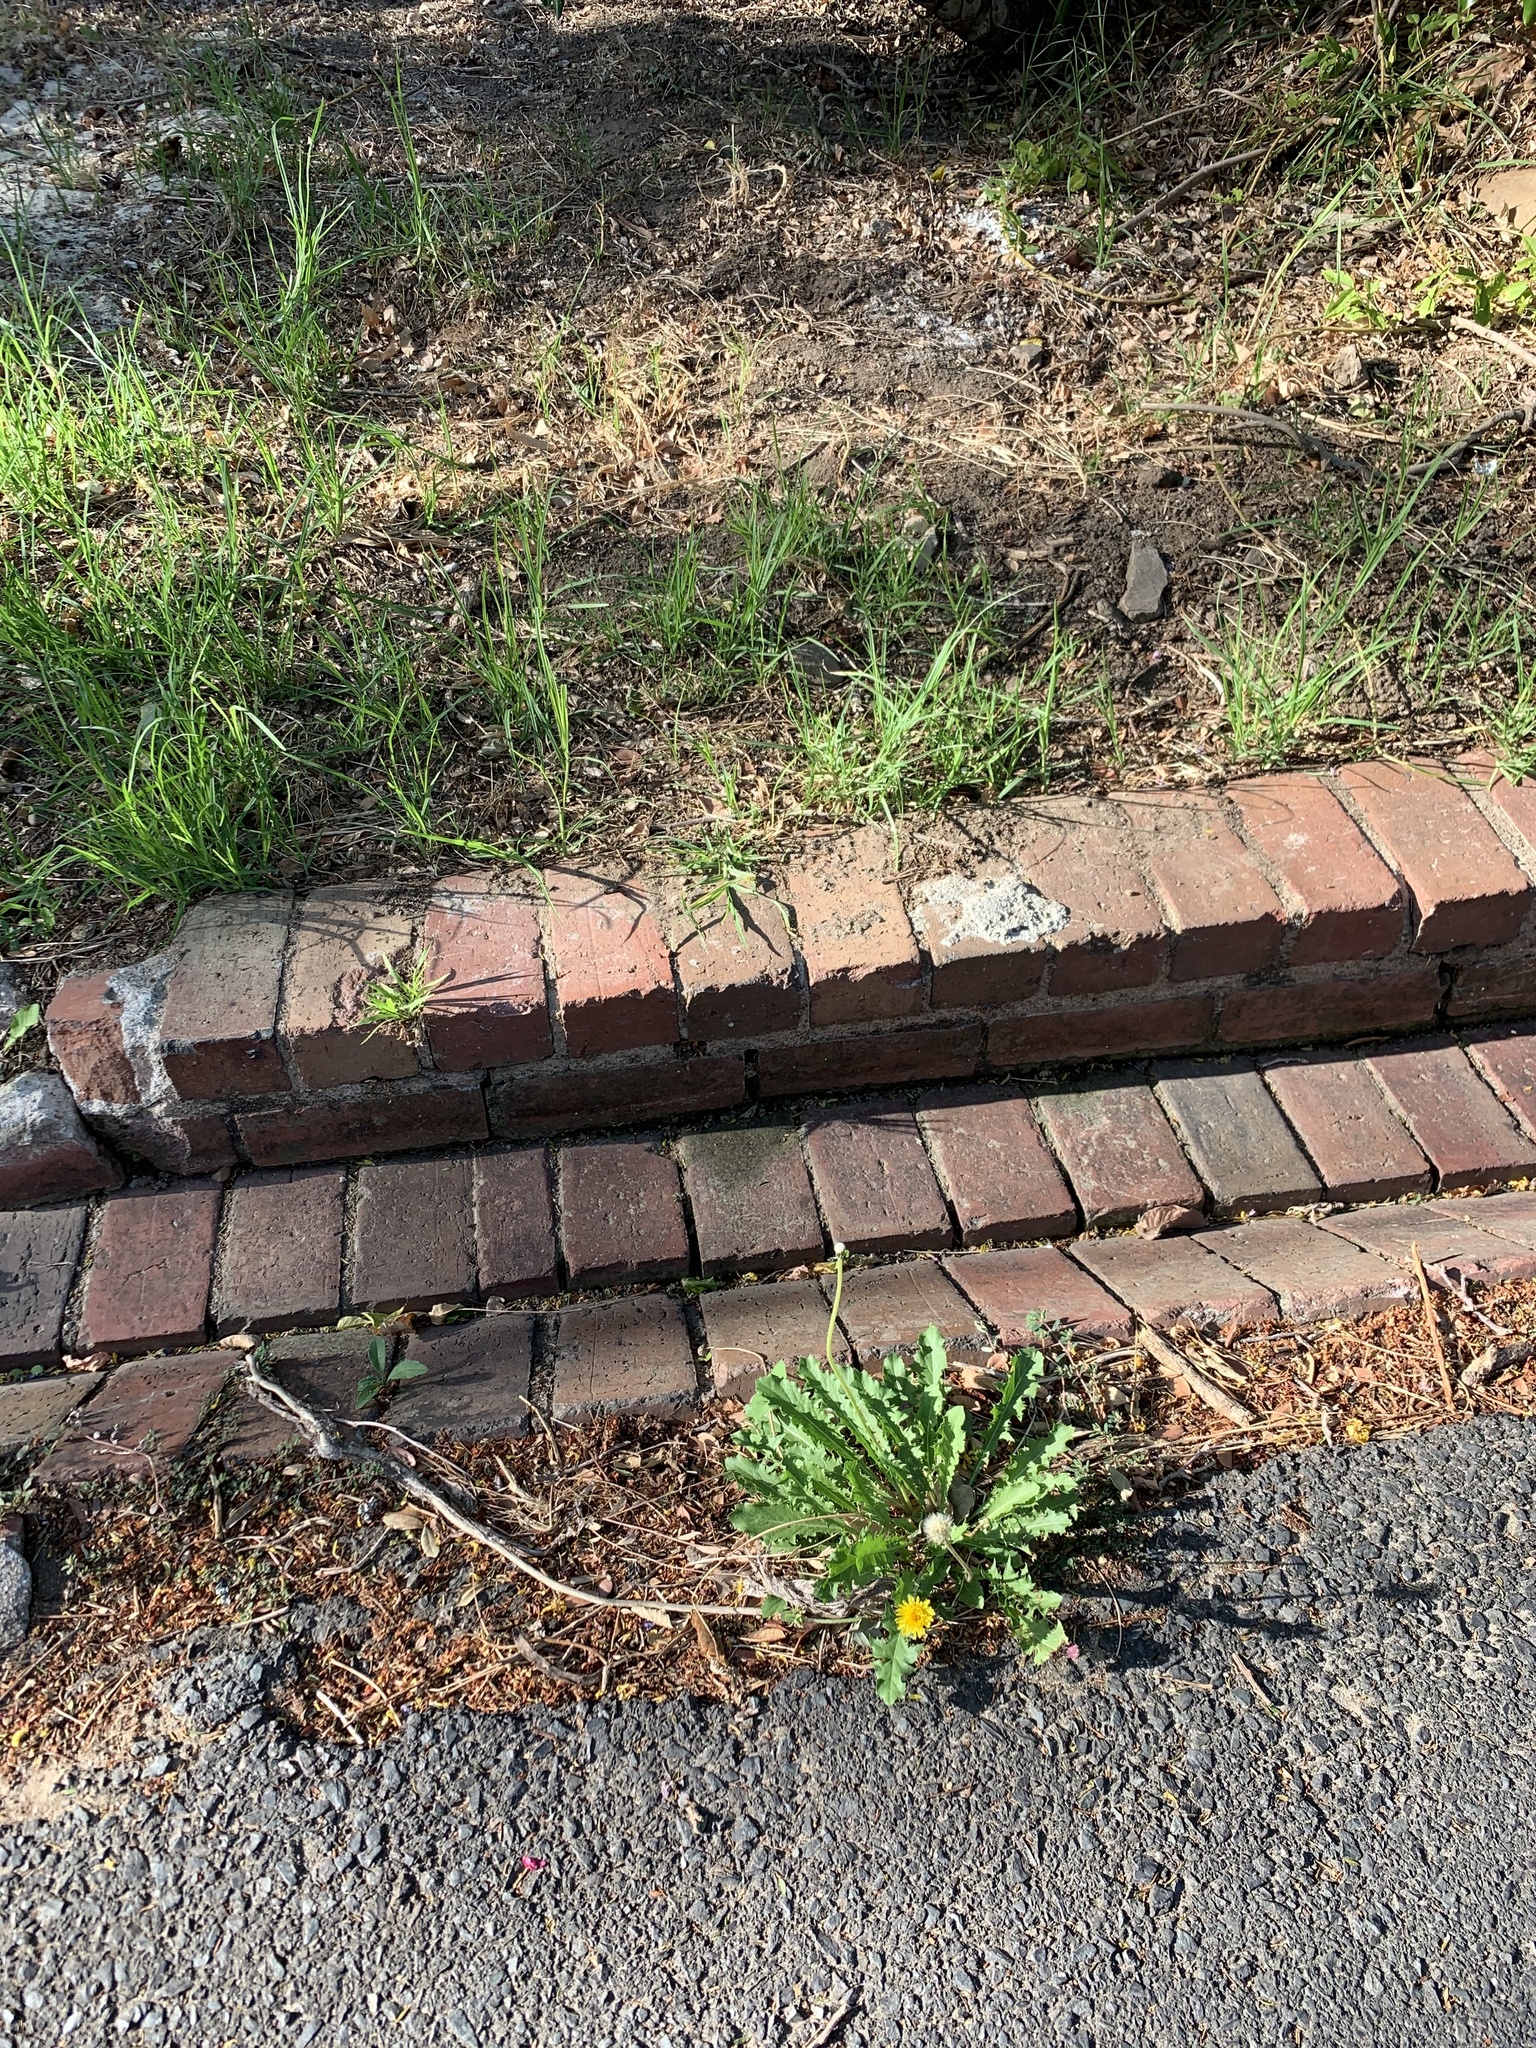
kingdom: Plantae
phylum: Tracheophyta
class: Magnoliopsida
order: Asterales
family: Asteraceae
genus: Taraxacum
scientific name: Taraxacum officinale
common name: Common dandelion
